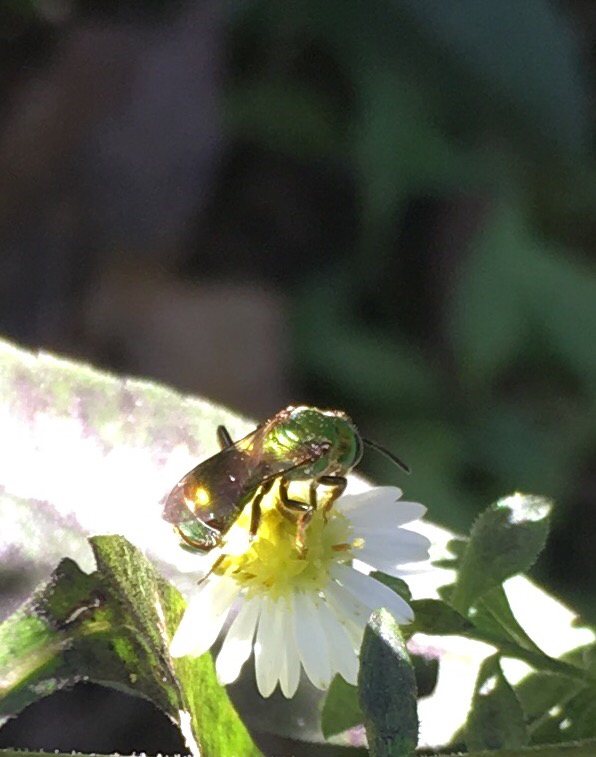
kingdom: Animalia
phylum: Arthropoda
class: Insecta
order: Hymenoptera
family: Halictidae
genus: Augochlora
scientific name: Augochlora pura
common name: Pure green sweat bee
